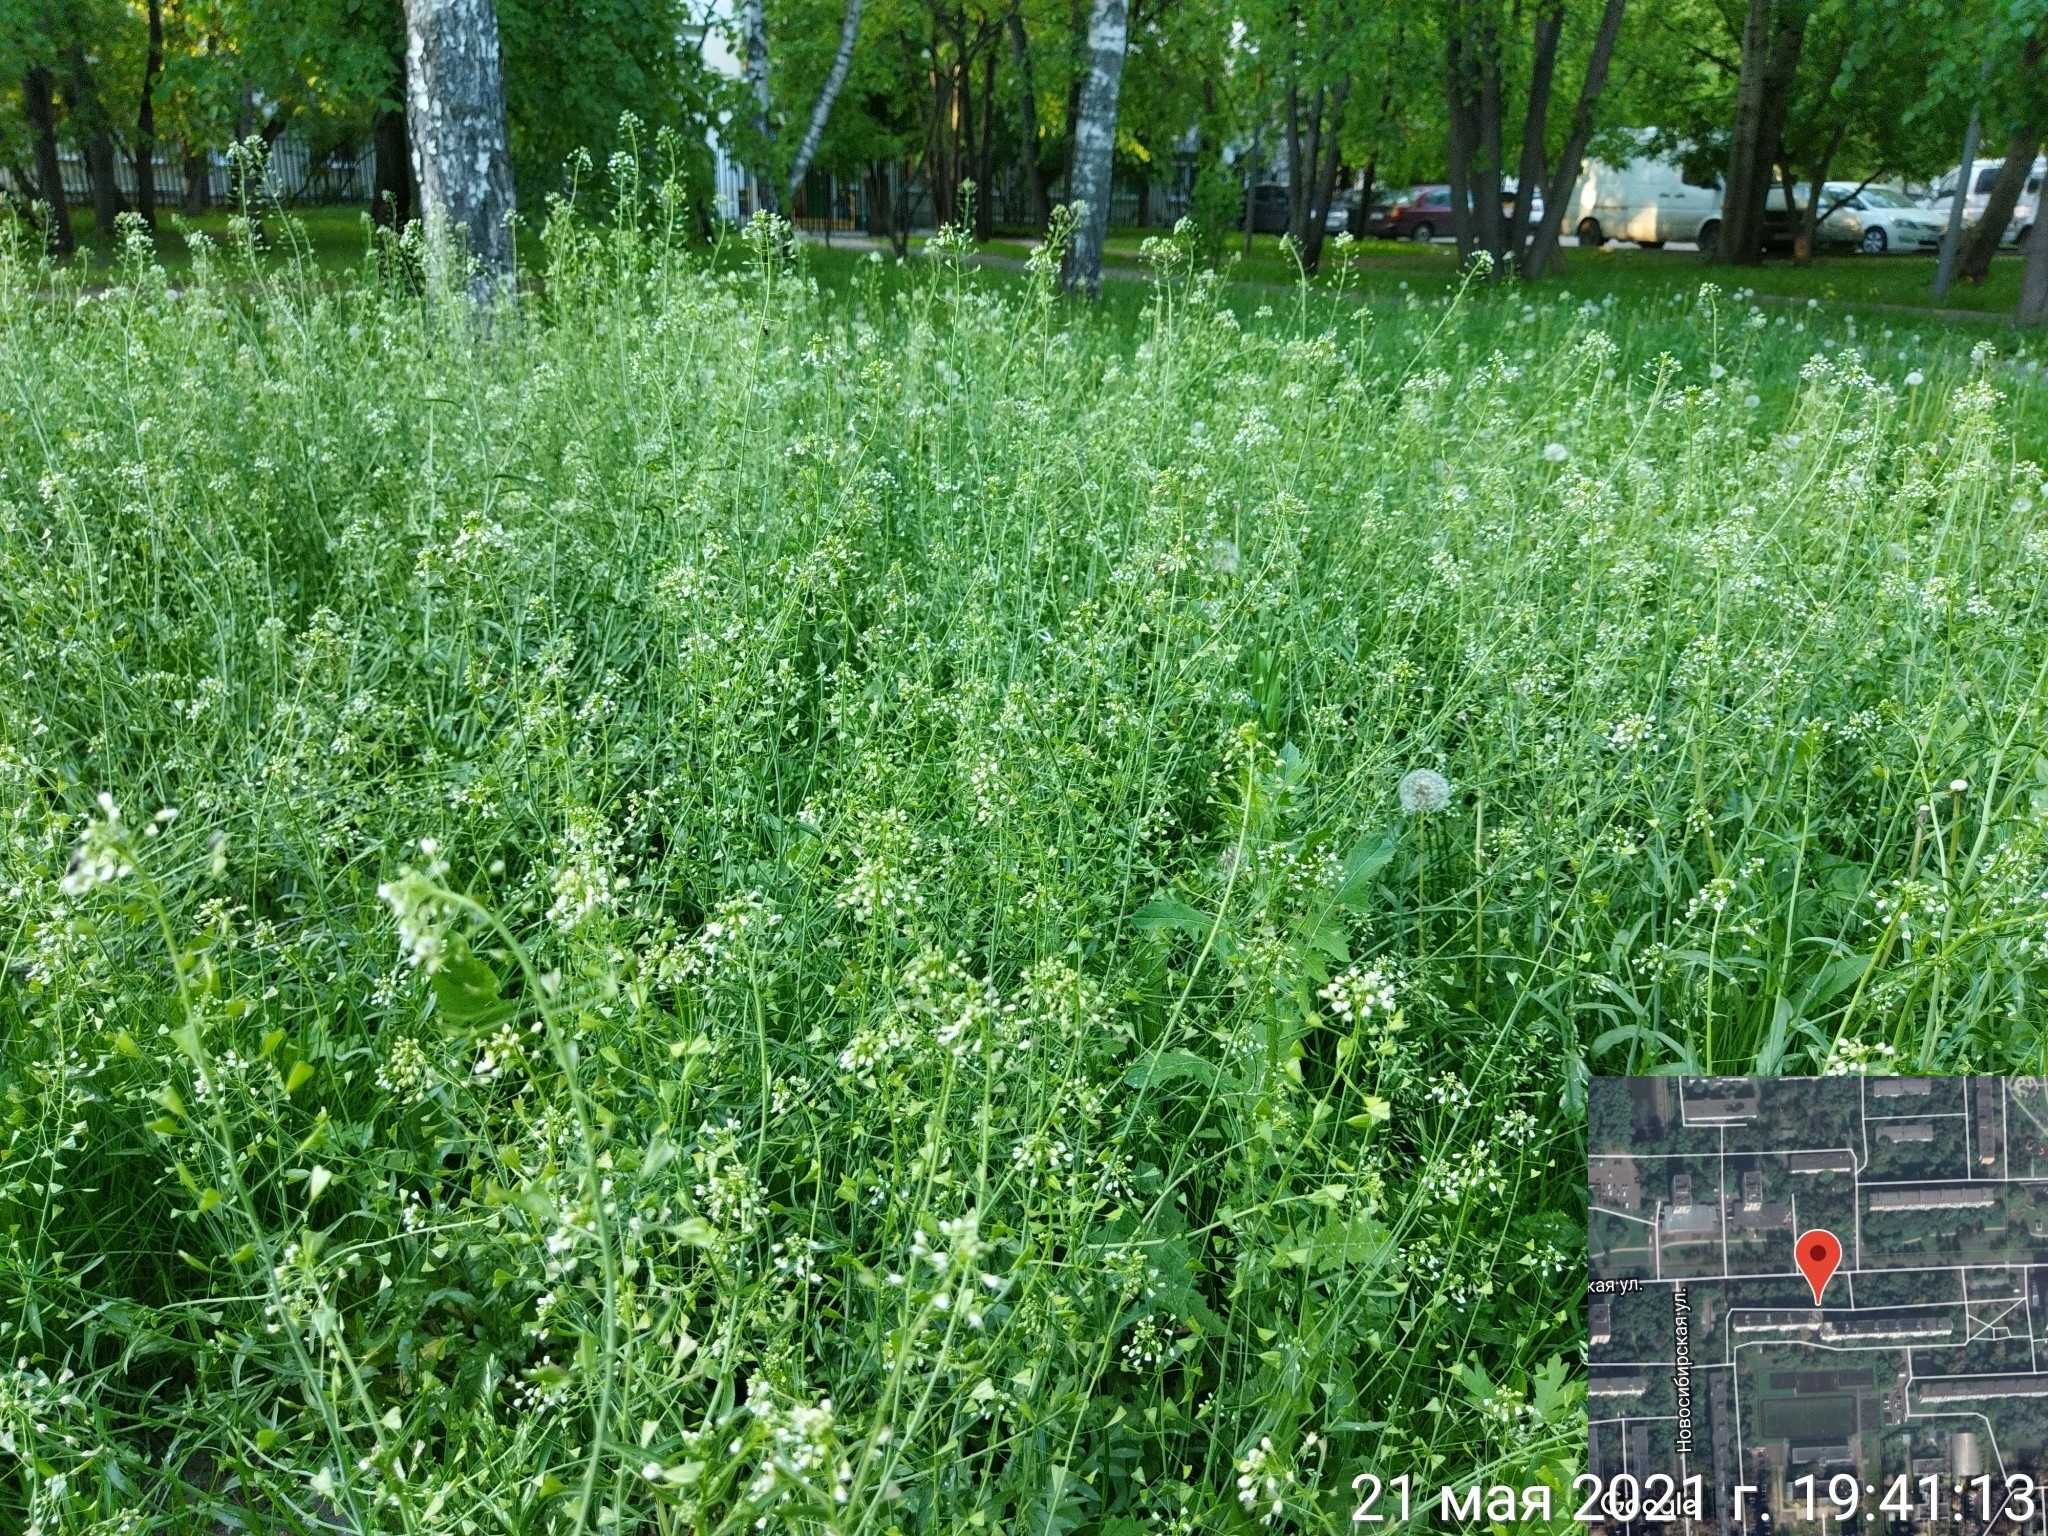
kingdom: Plantae
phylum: Tracheophyta
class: Magnoliopsida
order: Brassicales
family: Brassicaceae
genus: Capsella
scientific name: Capsella bursa-pastoris
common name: Shepherd's purse
